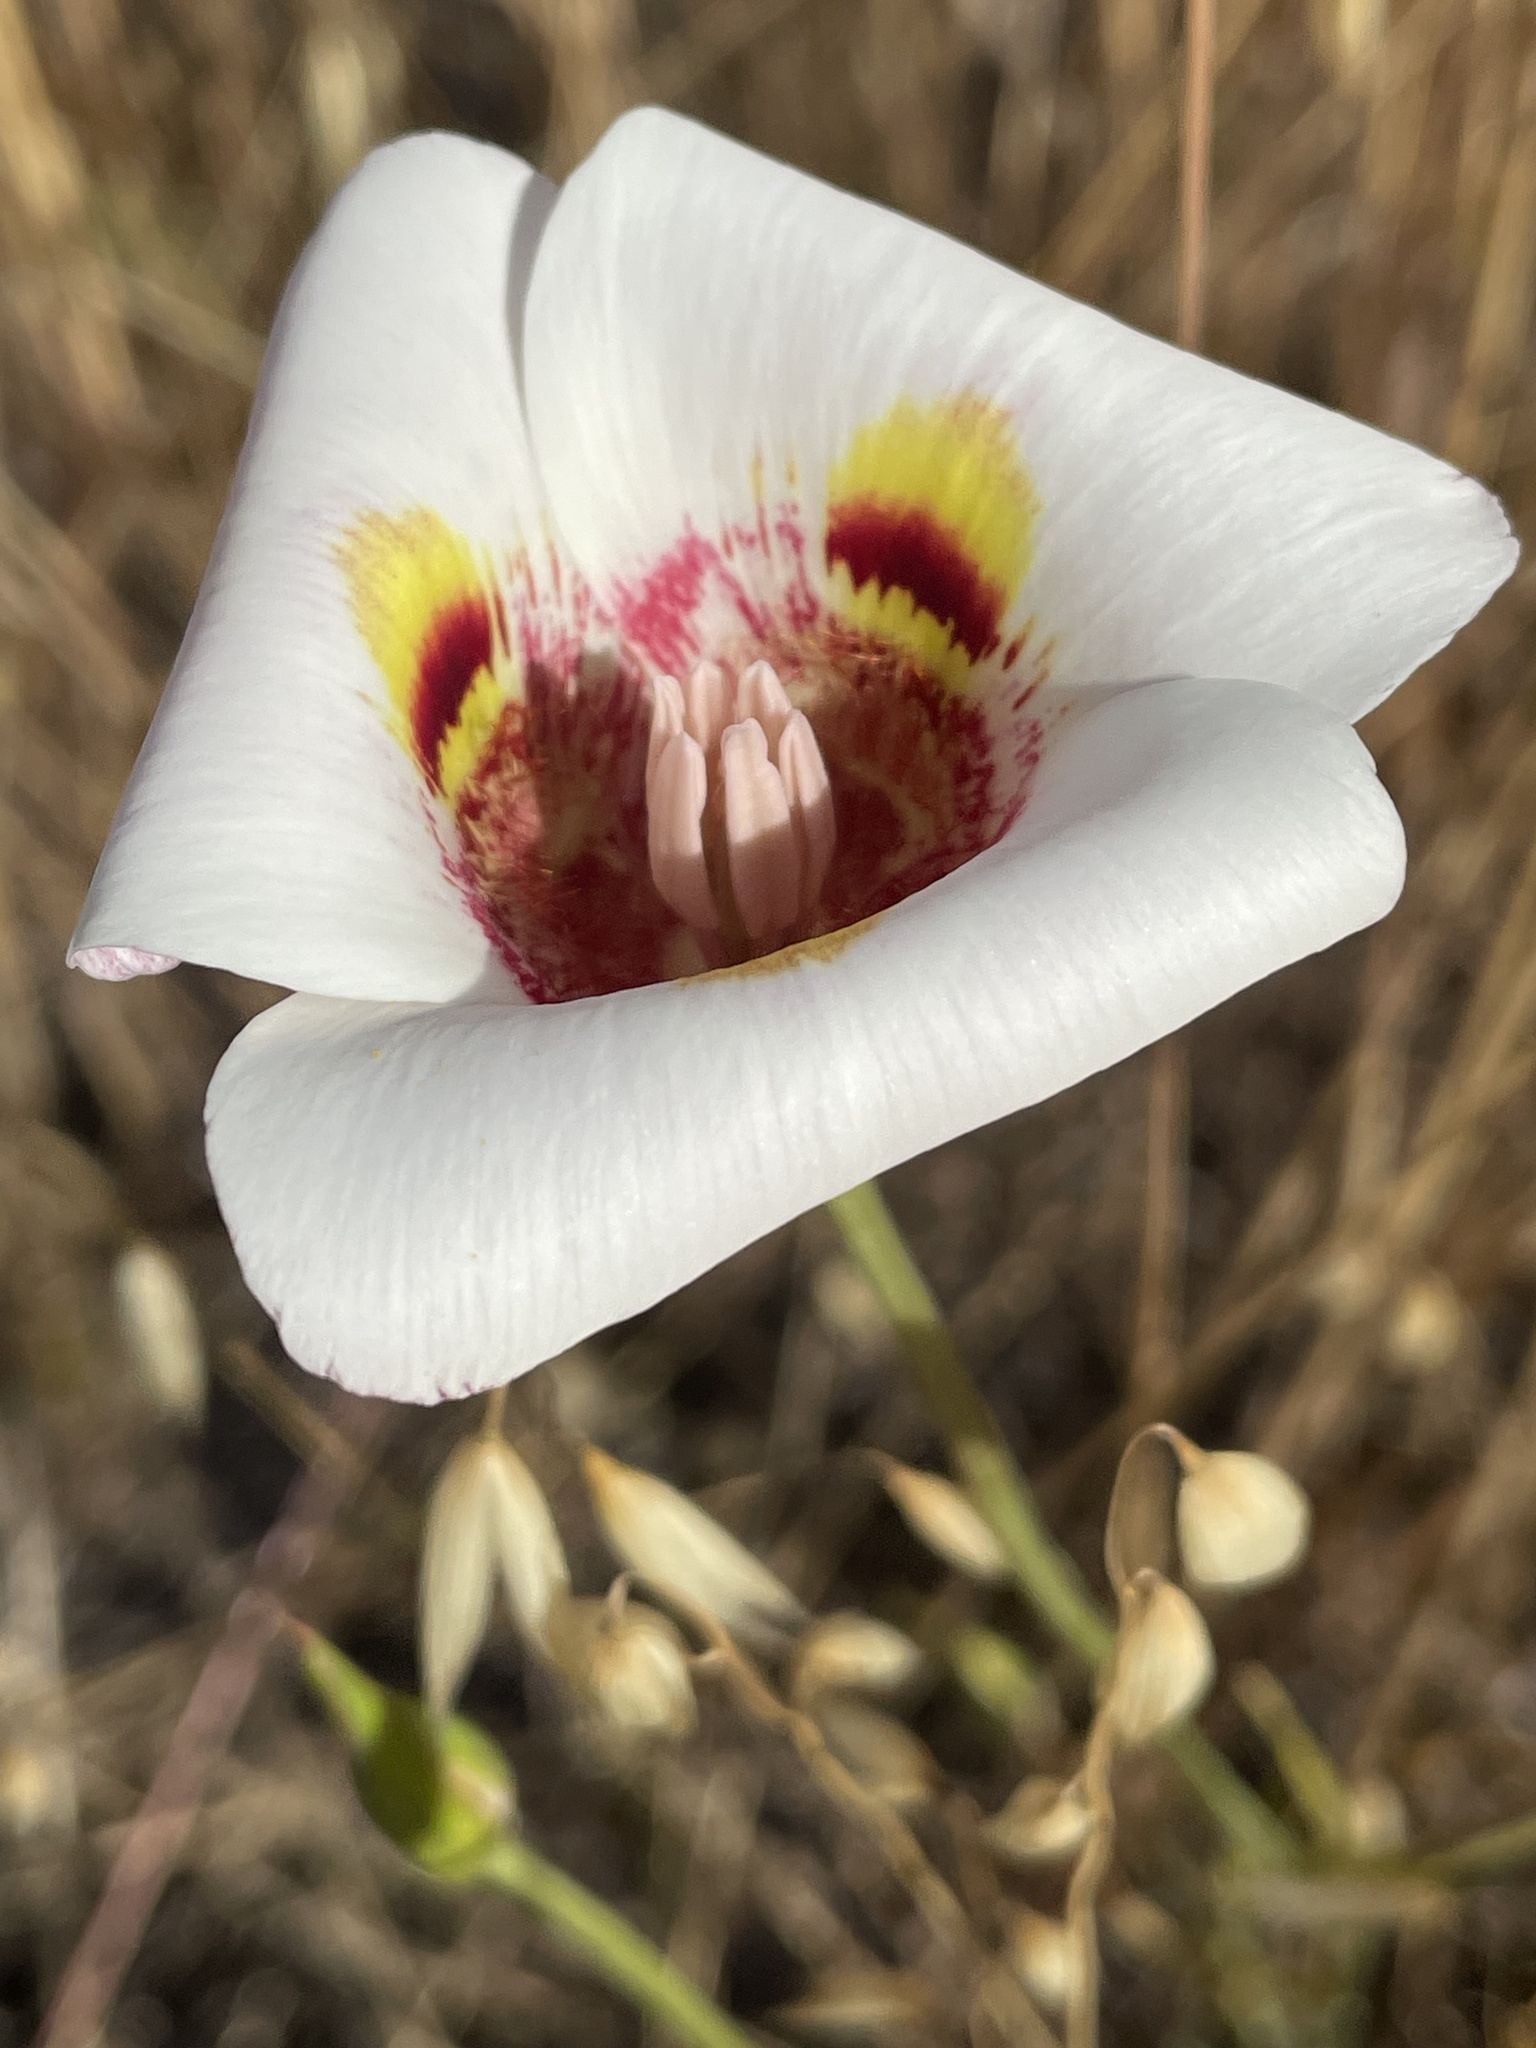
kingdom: Plantae
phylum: Tracheophyta
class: Liliopsida
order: Liliales
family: Liliaceae
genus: Calochortus
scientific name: Calochortus argillosus
